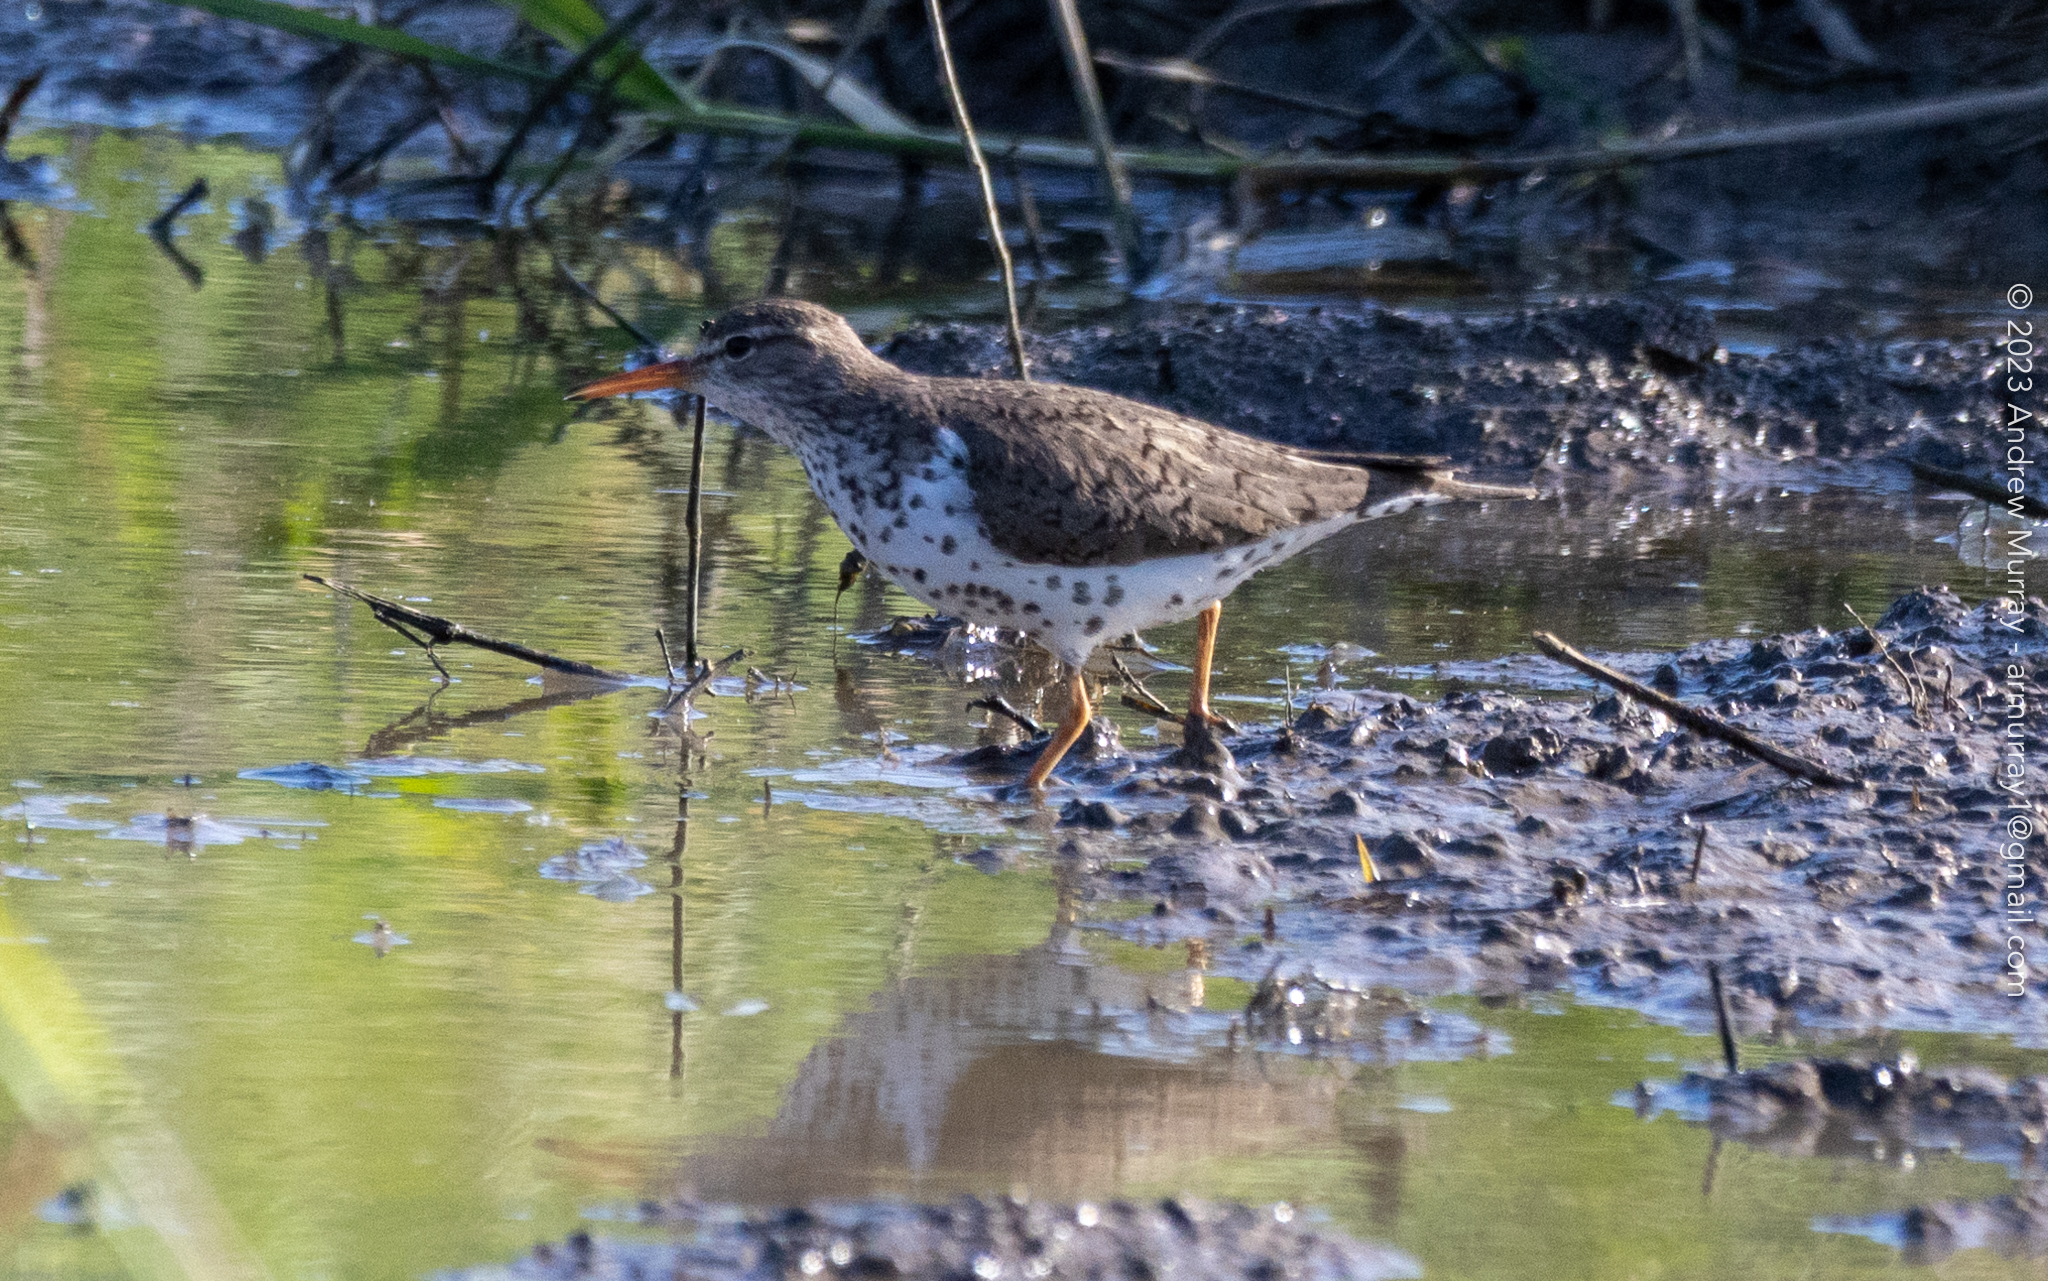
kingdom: Animalia
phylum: Chordata
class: Aves
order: Charadriiformes
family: Scolopacidae
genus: Actitis
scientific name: Actitis macularius
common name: Spotted sandpiper
